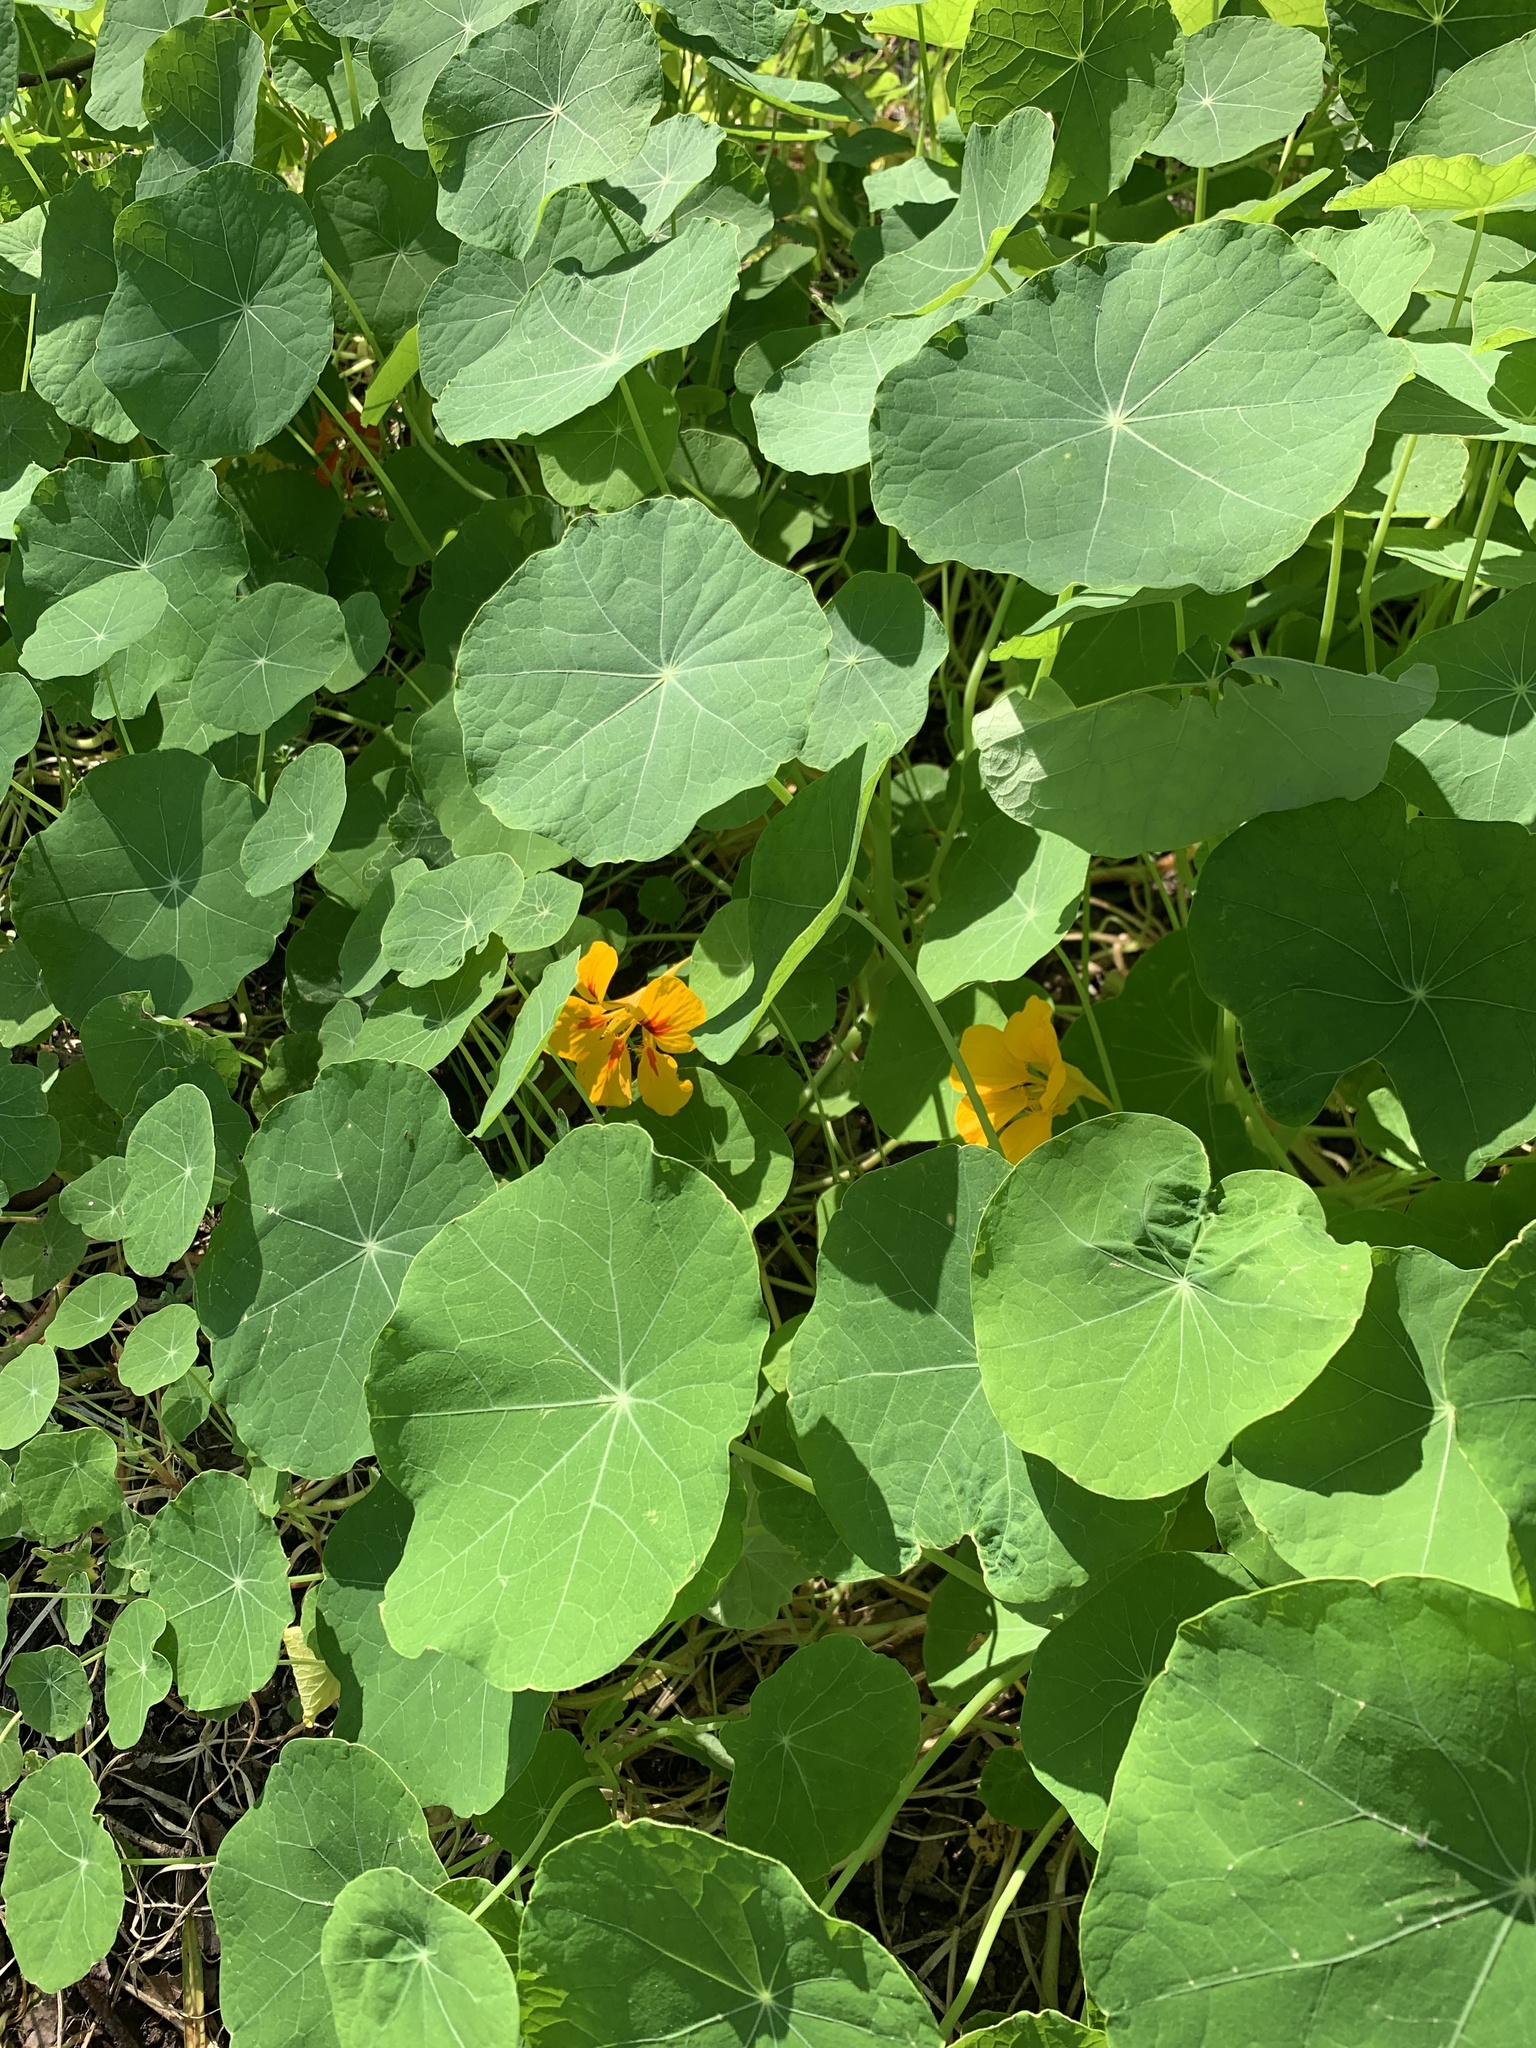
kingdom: Plantae
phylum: Tracheophyta
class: Magnoliopsida
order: Brassicales
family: Tropaeolaceae
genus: Tropaeolum
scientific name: Tropaeolum majus
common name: Nasturtium
